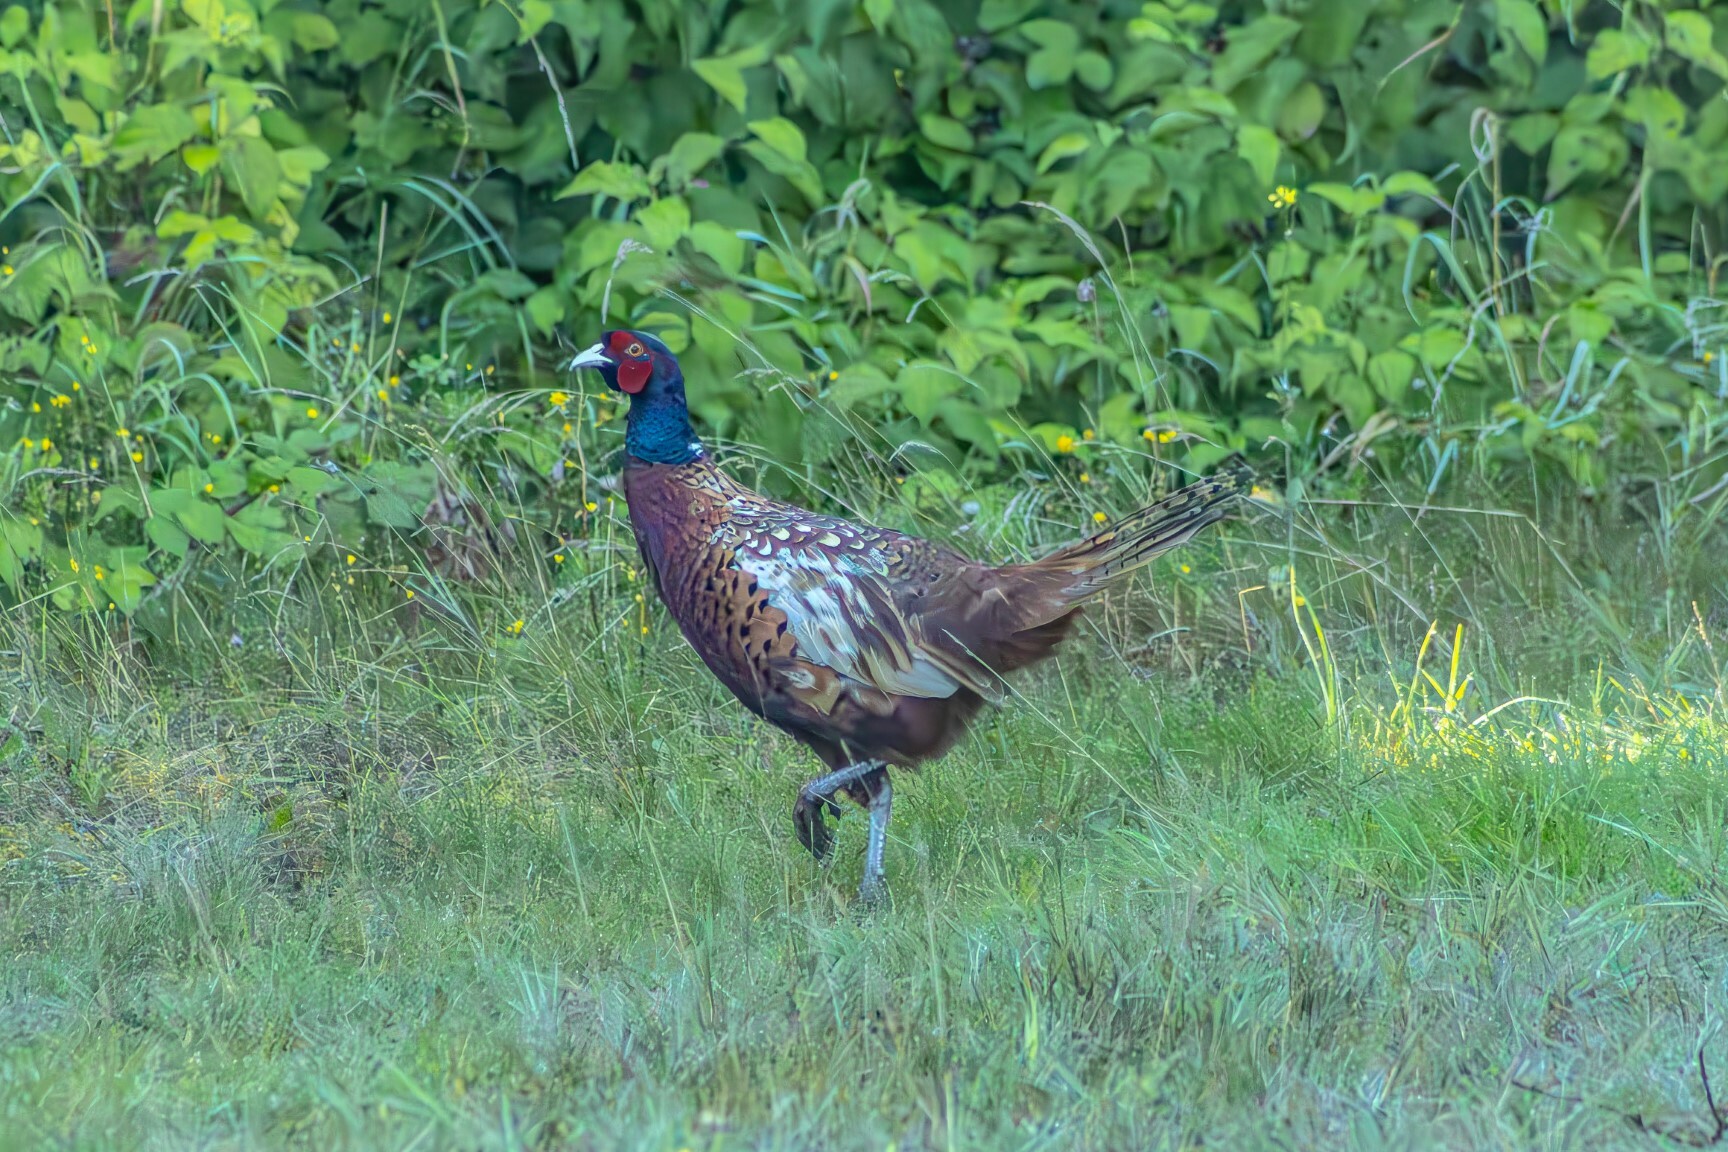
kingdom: Animalia
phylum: Chordata
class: Aves
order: Galliformes
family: Phasianidae
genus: Phasianus
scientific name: Phasianus colchicus
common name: Common pheasant
